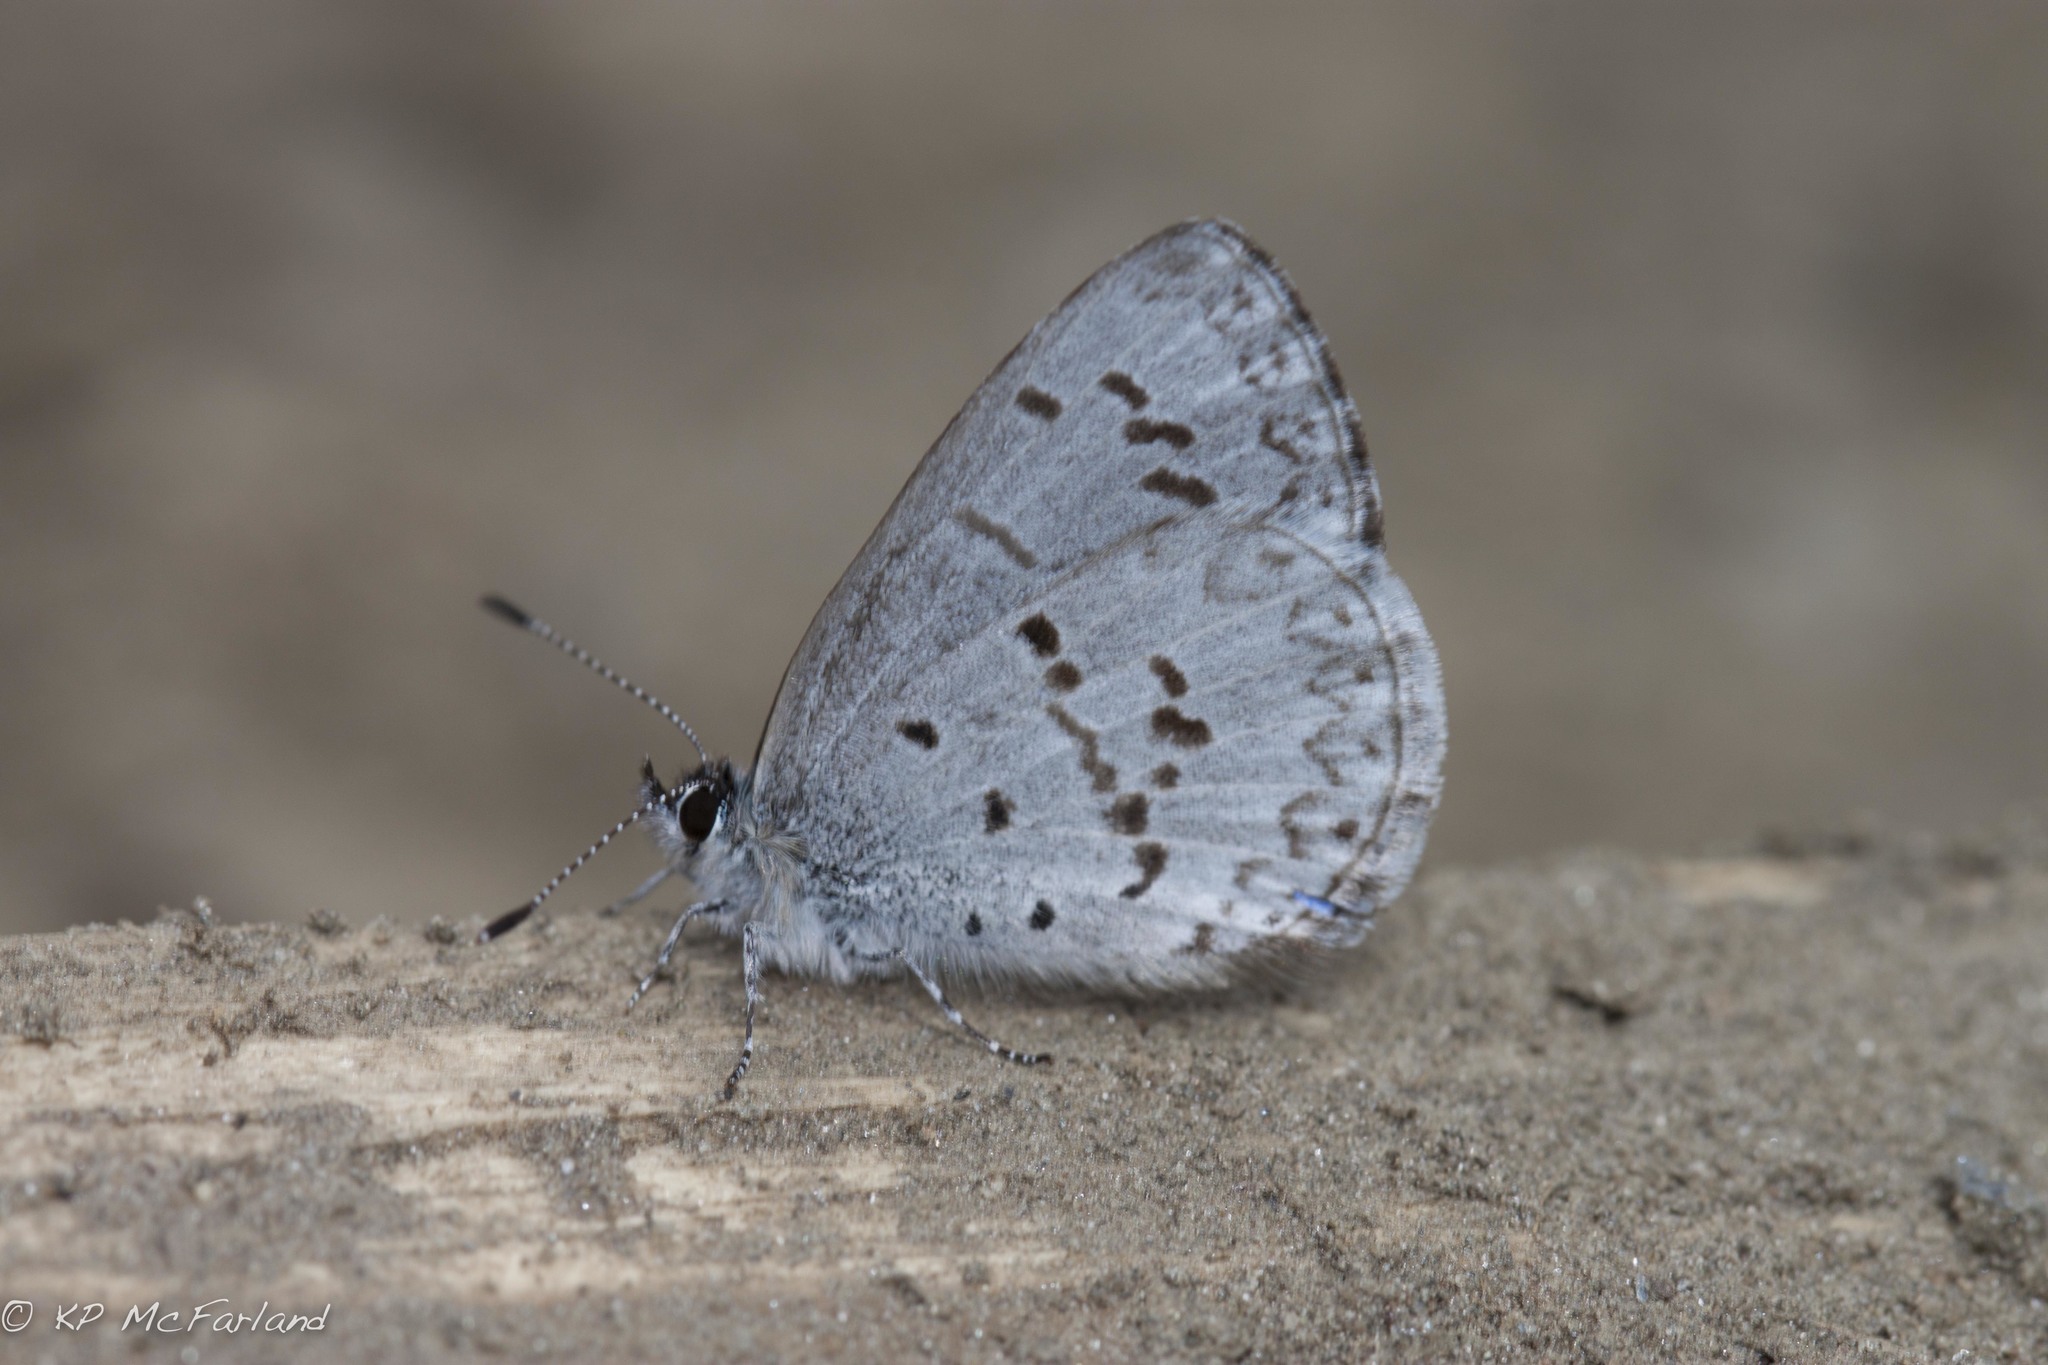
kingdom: Animalia
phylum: Arthropoda
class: Insecta
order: Lepidoptera
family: Lycaenidae
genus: Celastrina
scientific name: Celastrina lucia
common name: Lucia azure
